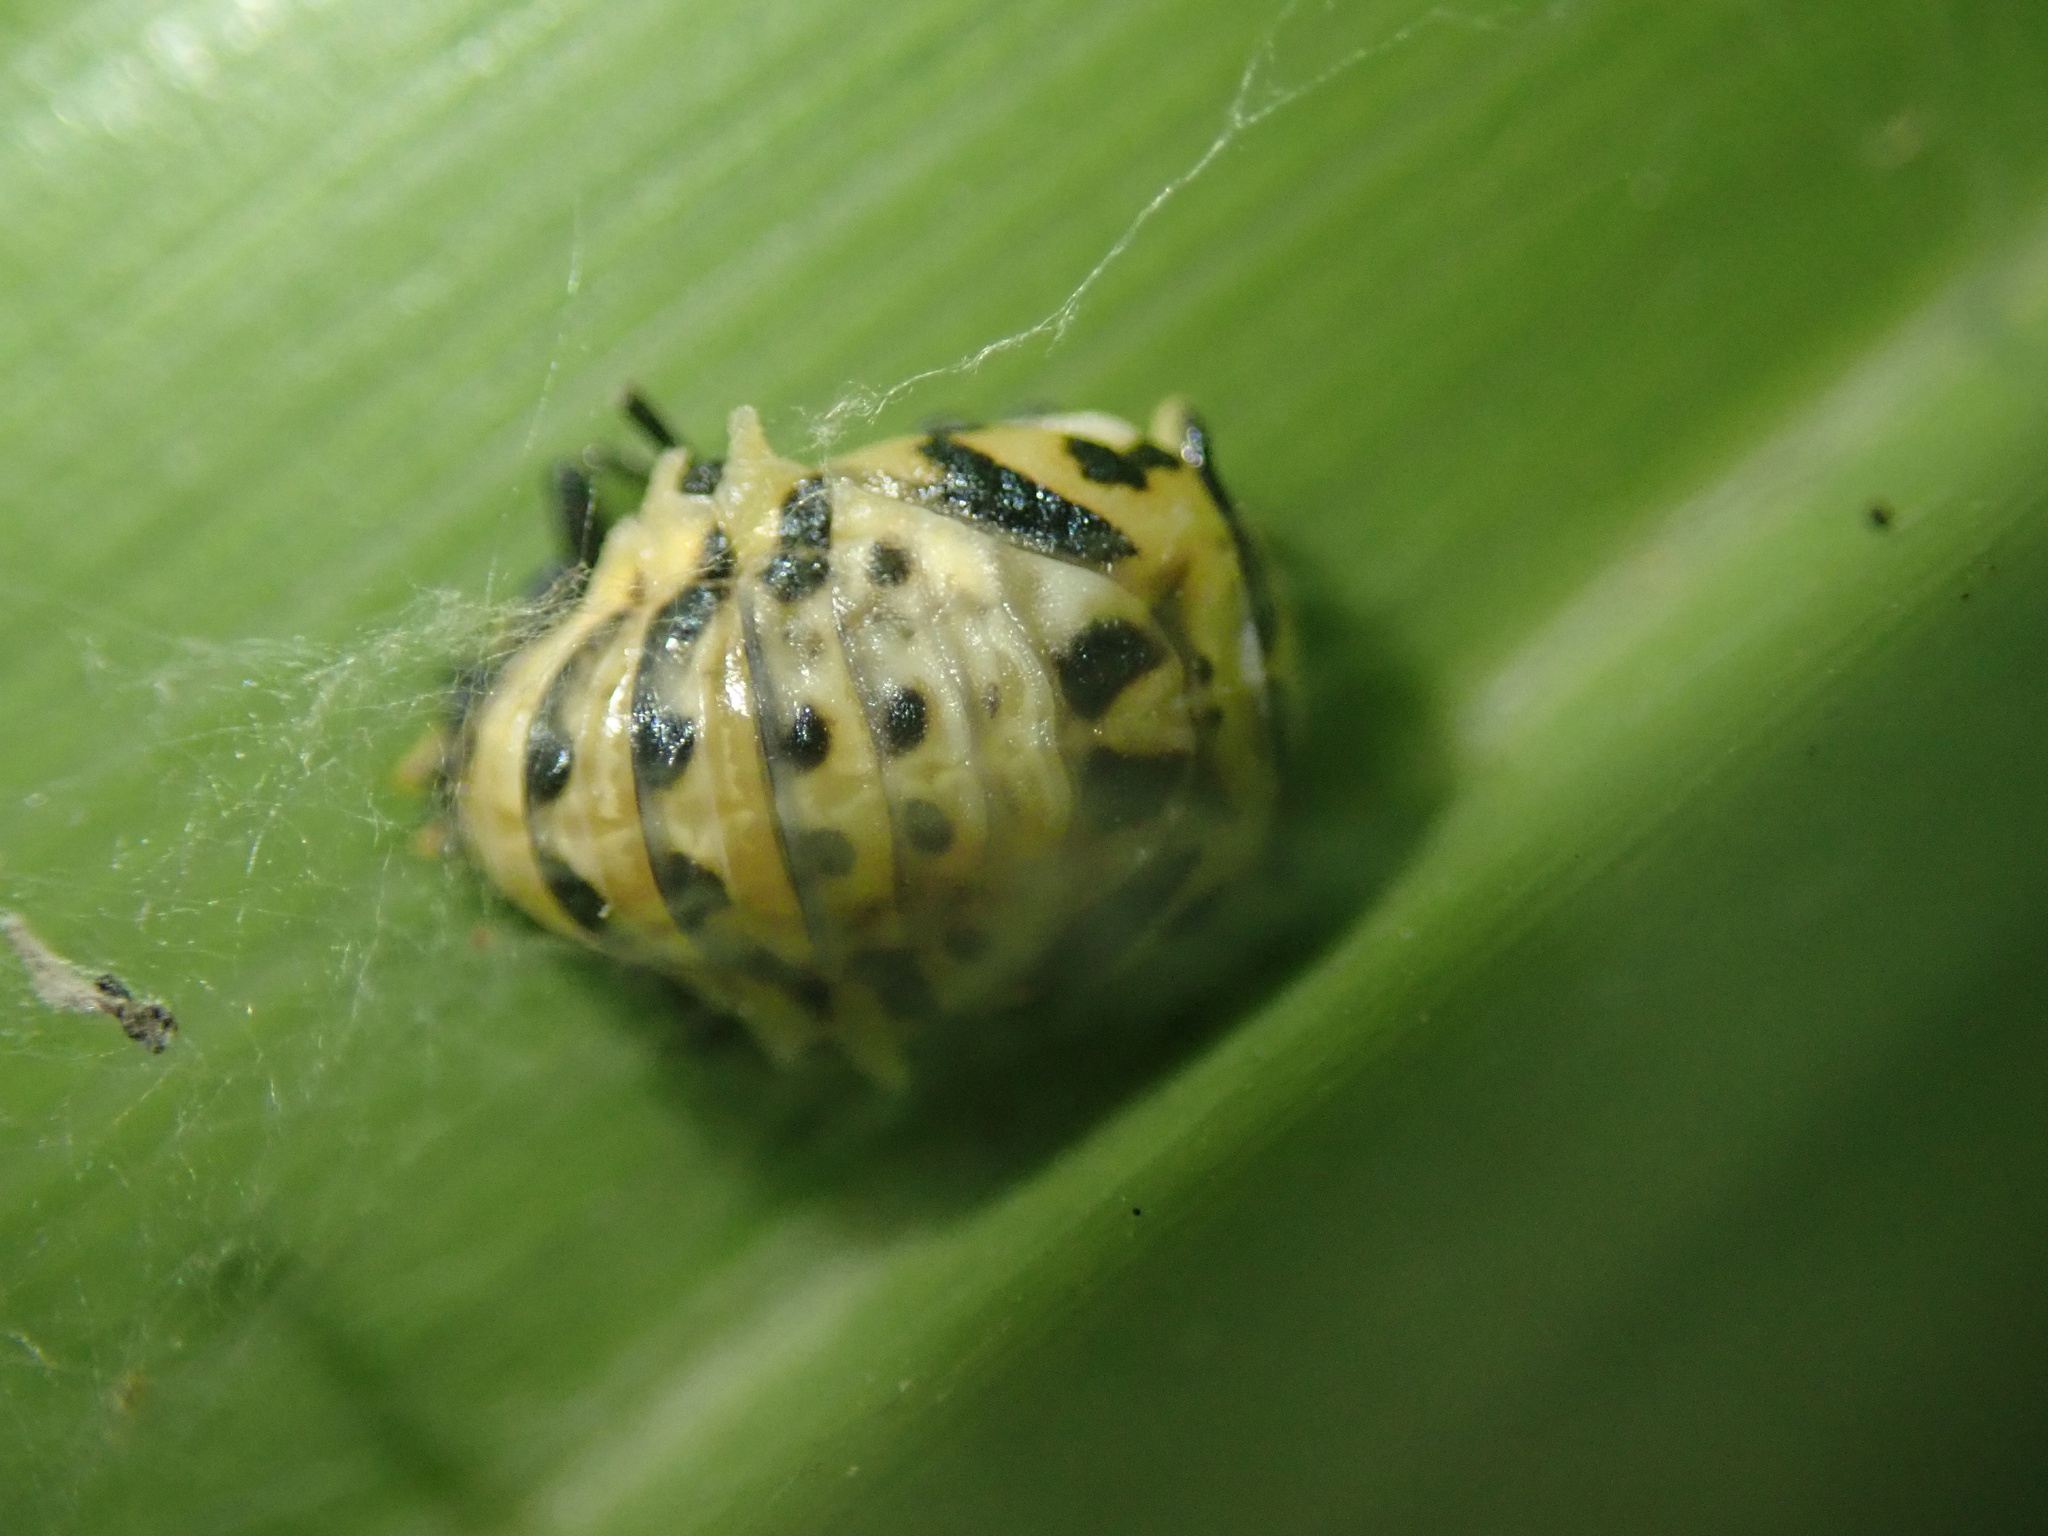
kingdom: Animalia
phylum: Arthropoda
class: Insecta
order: Coleoptera
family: Coccinellidae
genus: Cleobora
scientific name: Cleobora
